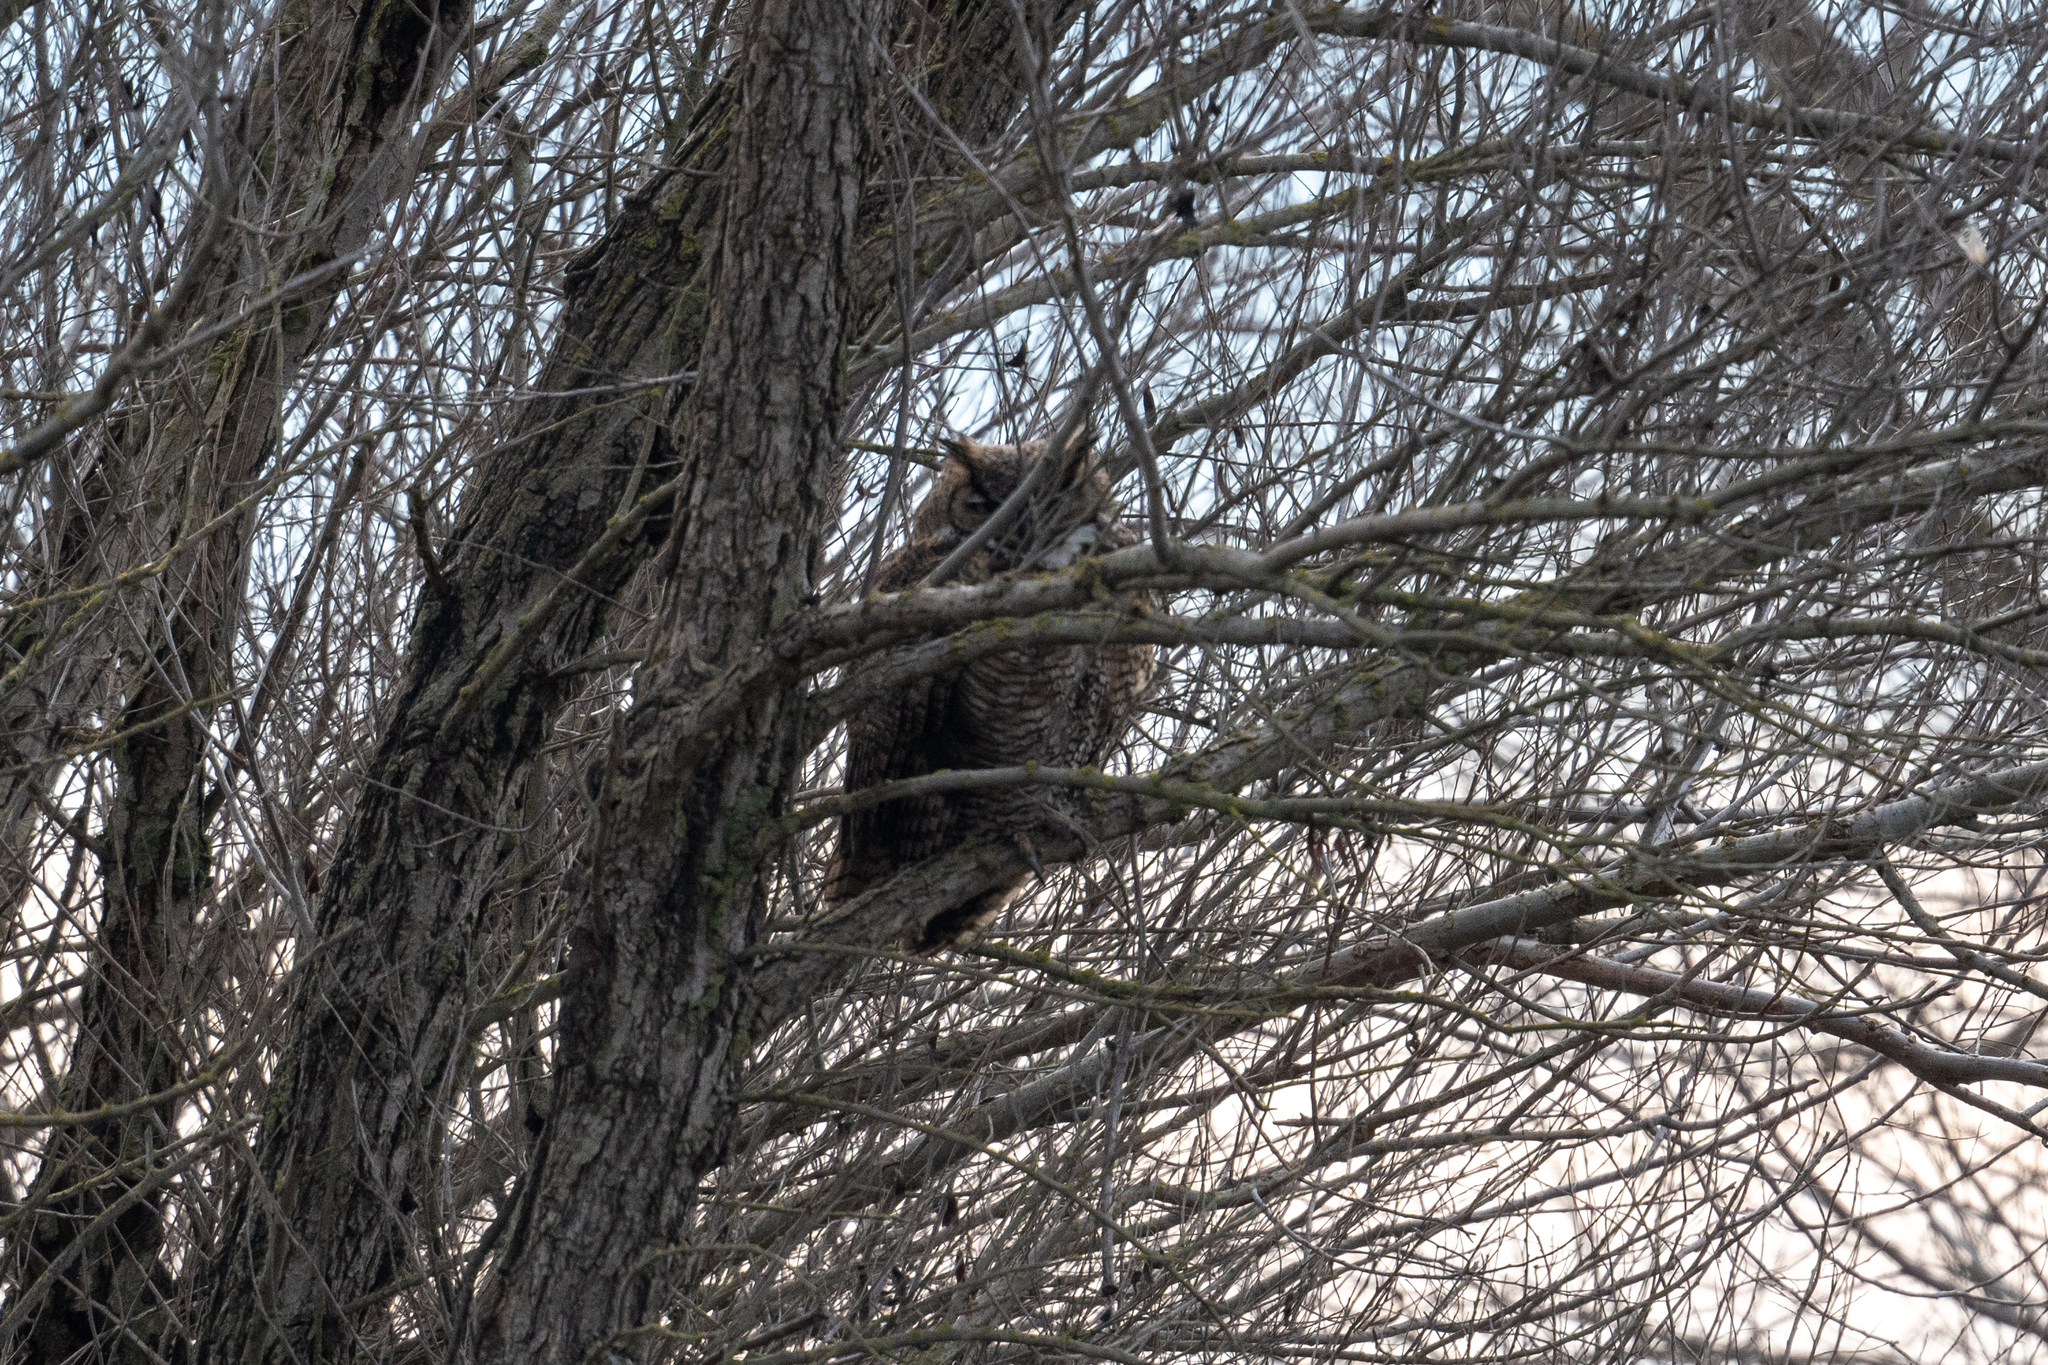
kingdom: Animalia
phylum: Chordata
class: Aves
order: Strigiformes
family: Strigidae
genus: Bubo
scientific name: Bubo virginianus
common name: Great horned owl
